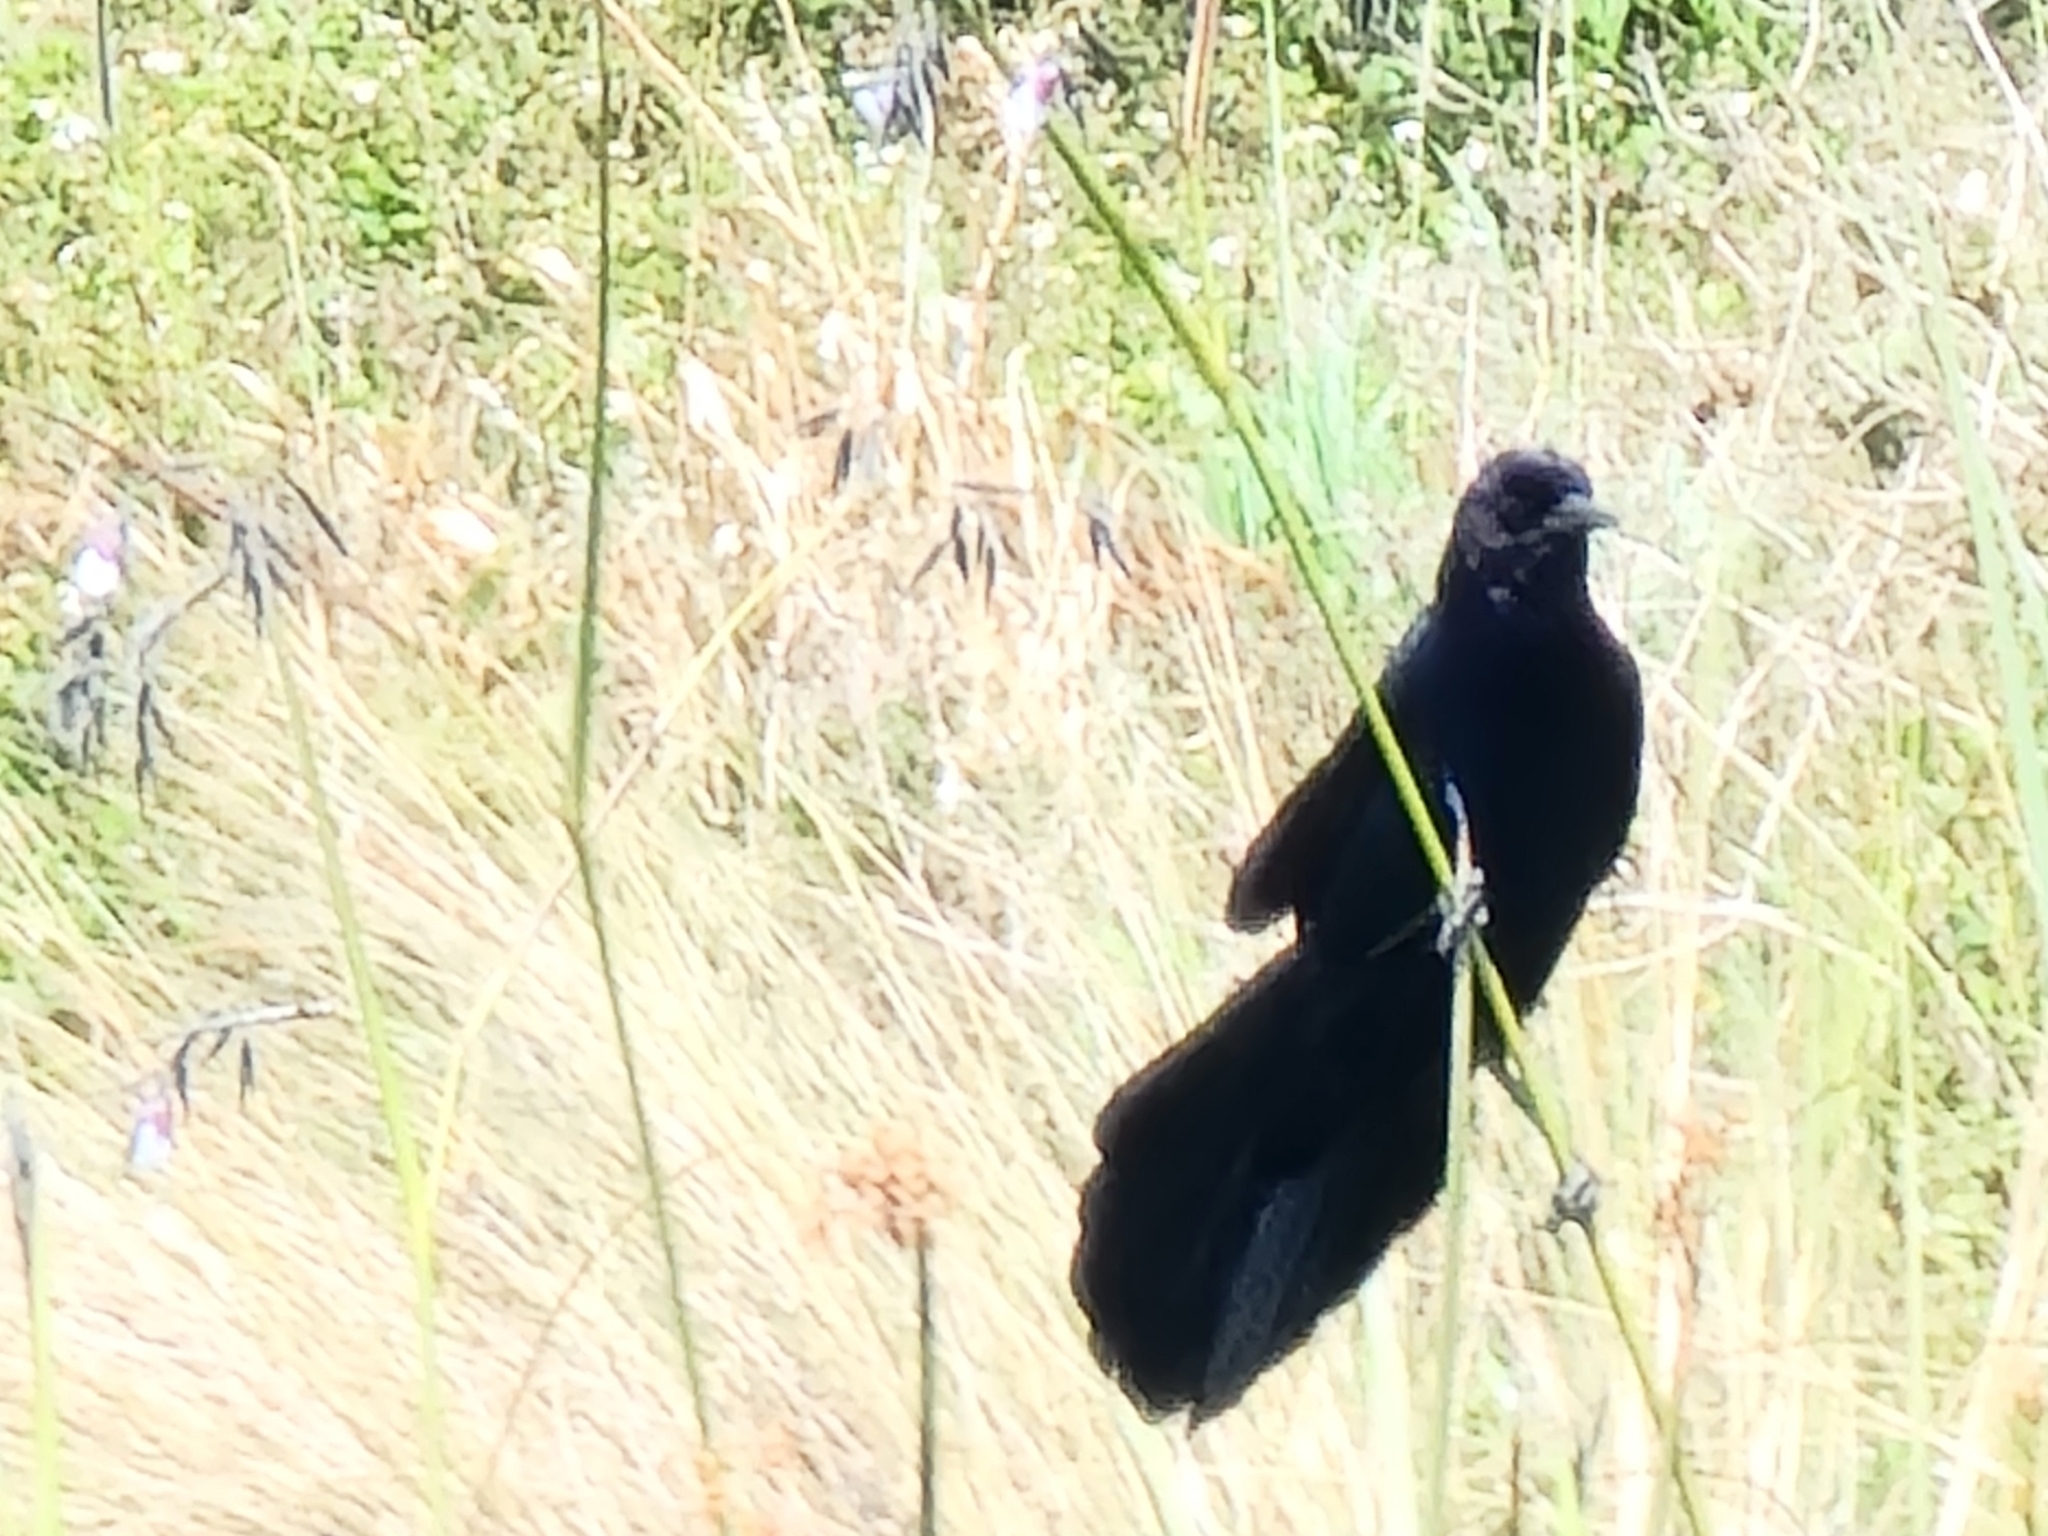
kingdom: Animalia
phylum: Chordata
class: Aves
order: Passeriformes
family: Icteridae
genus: Quiscalus
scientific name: Quiscalus major
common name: Boat-tailed grackle
